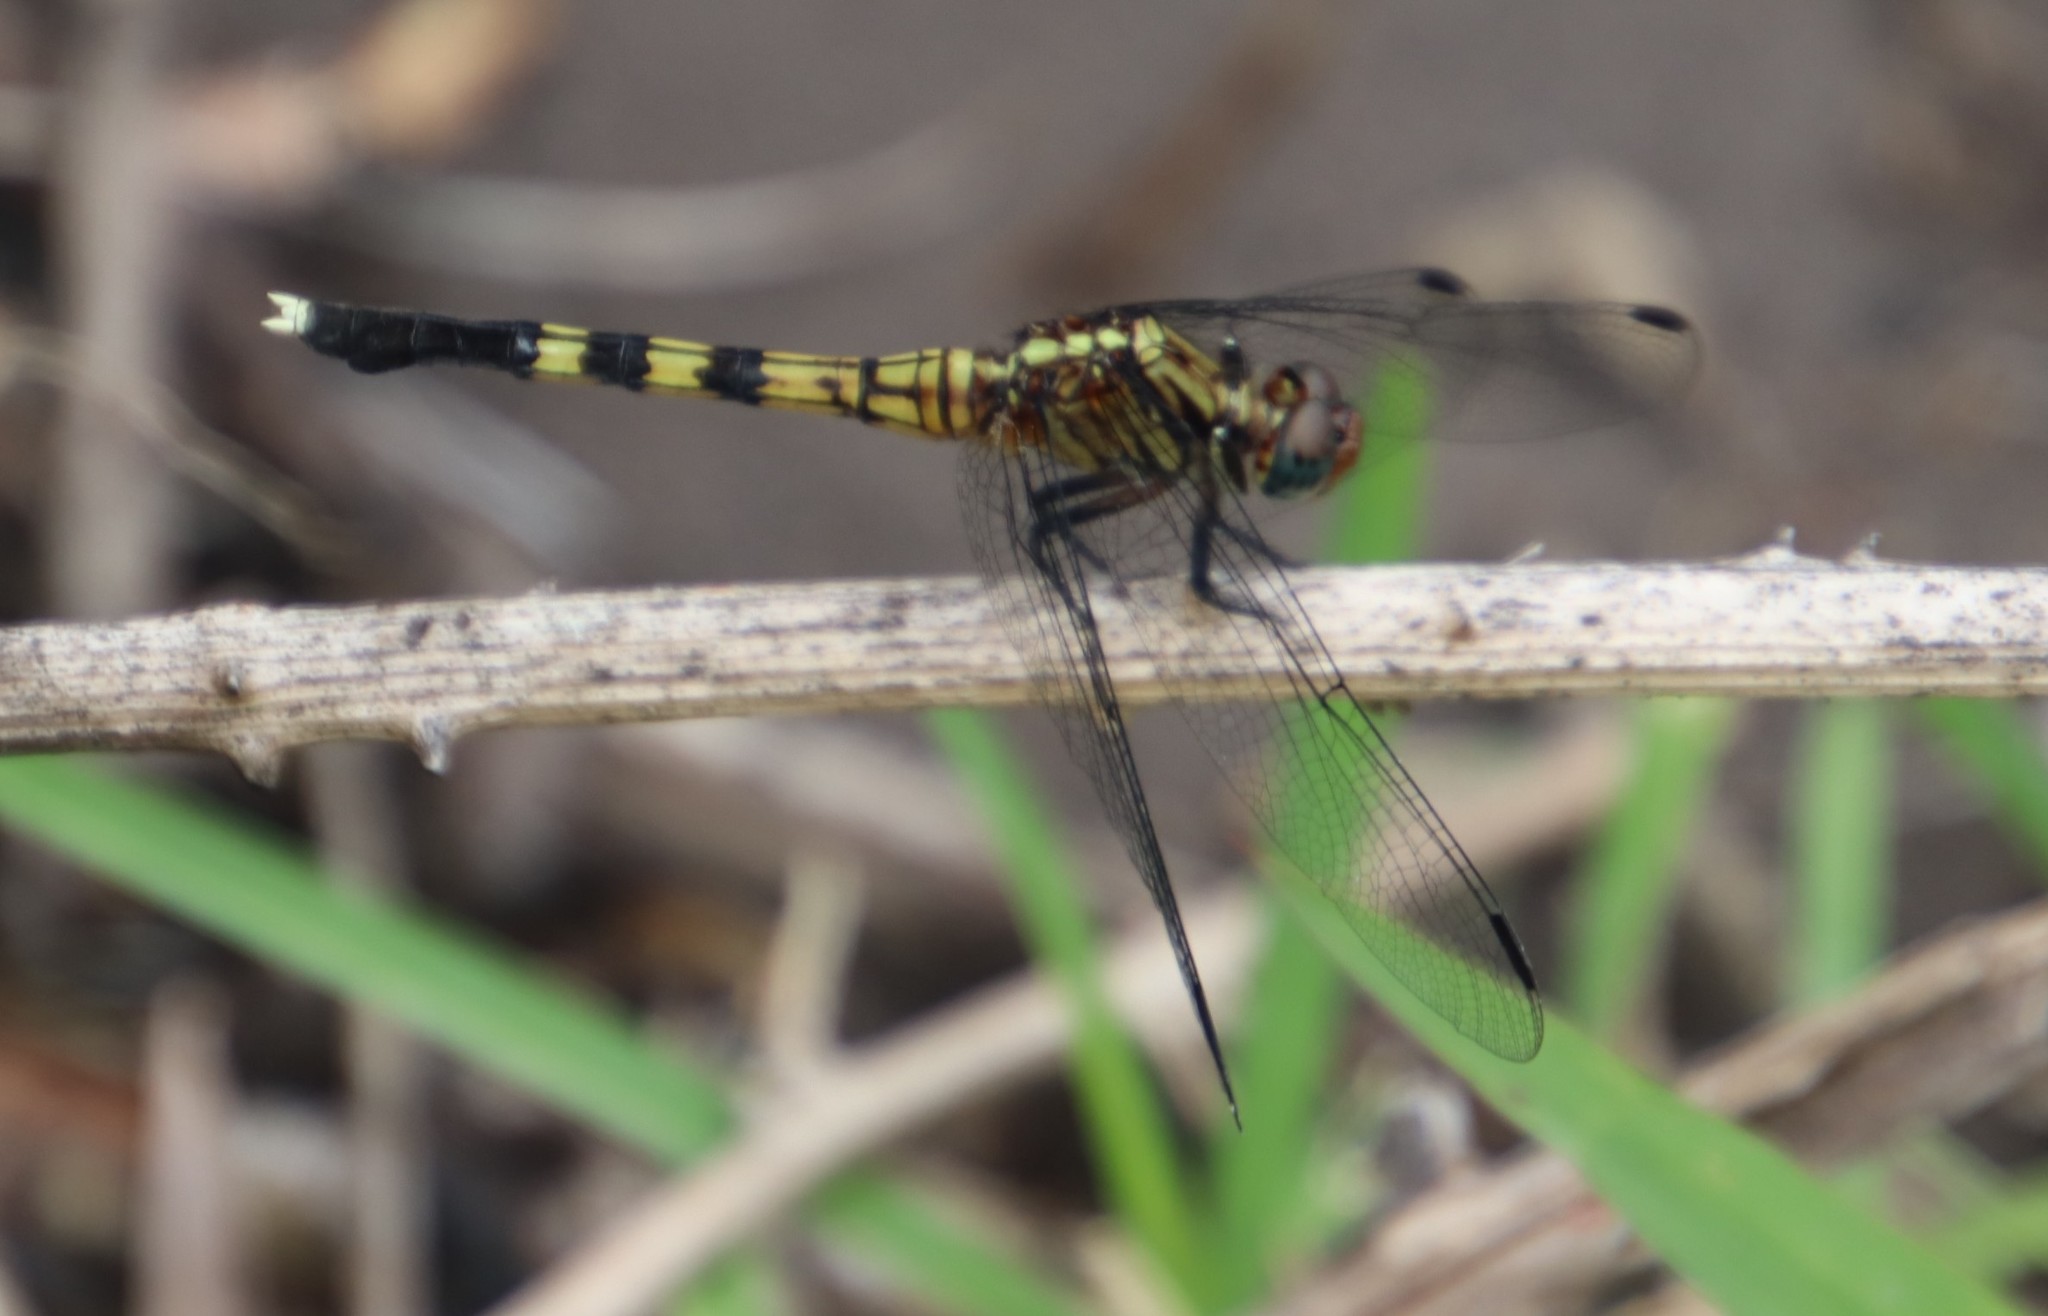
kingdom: Animalia
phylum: Arthropoda
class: Insecta
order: Odonata
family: Libellulidae
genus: Orthetrum
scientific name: Orthetrum julia
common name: Julia skimmer
